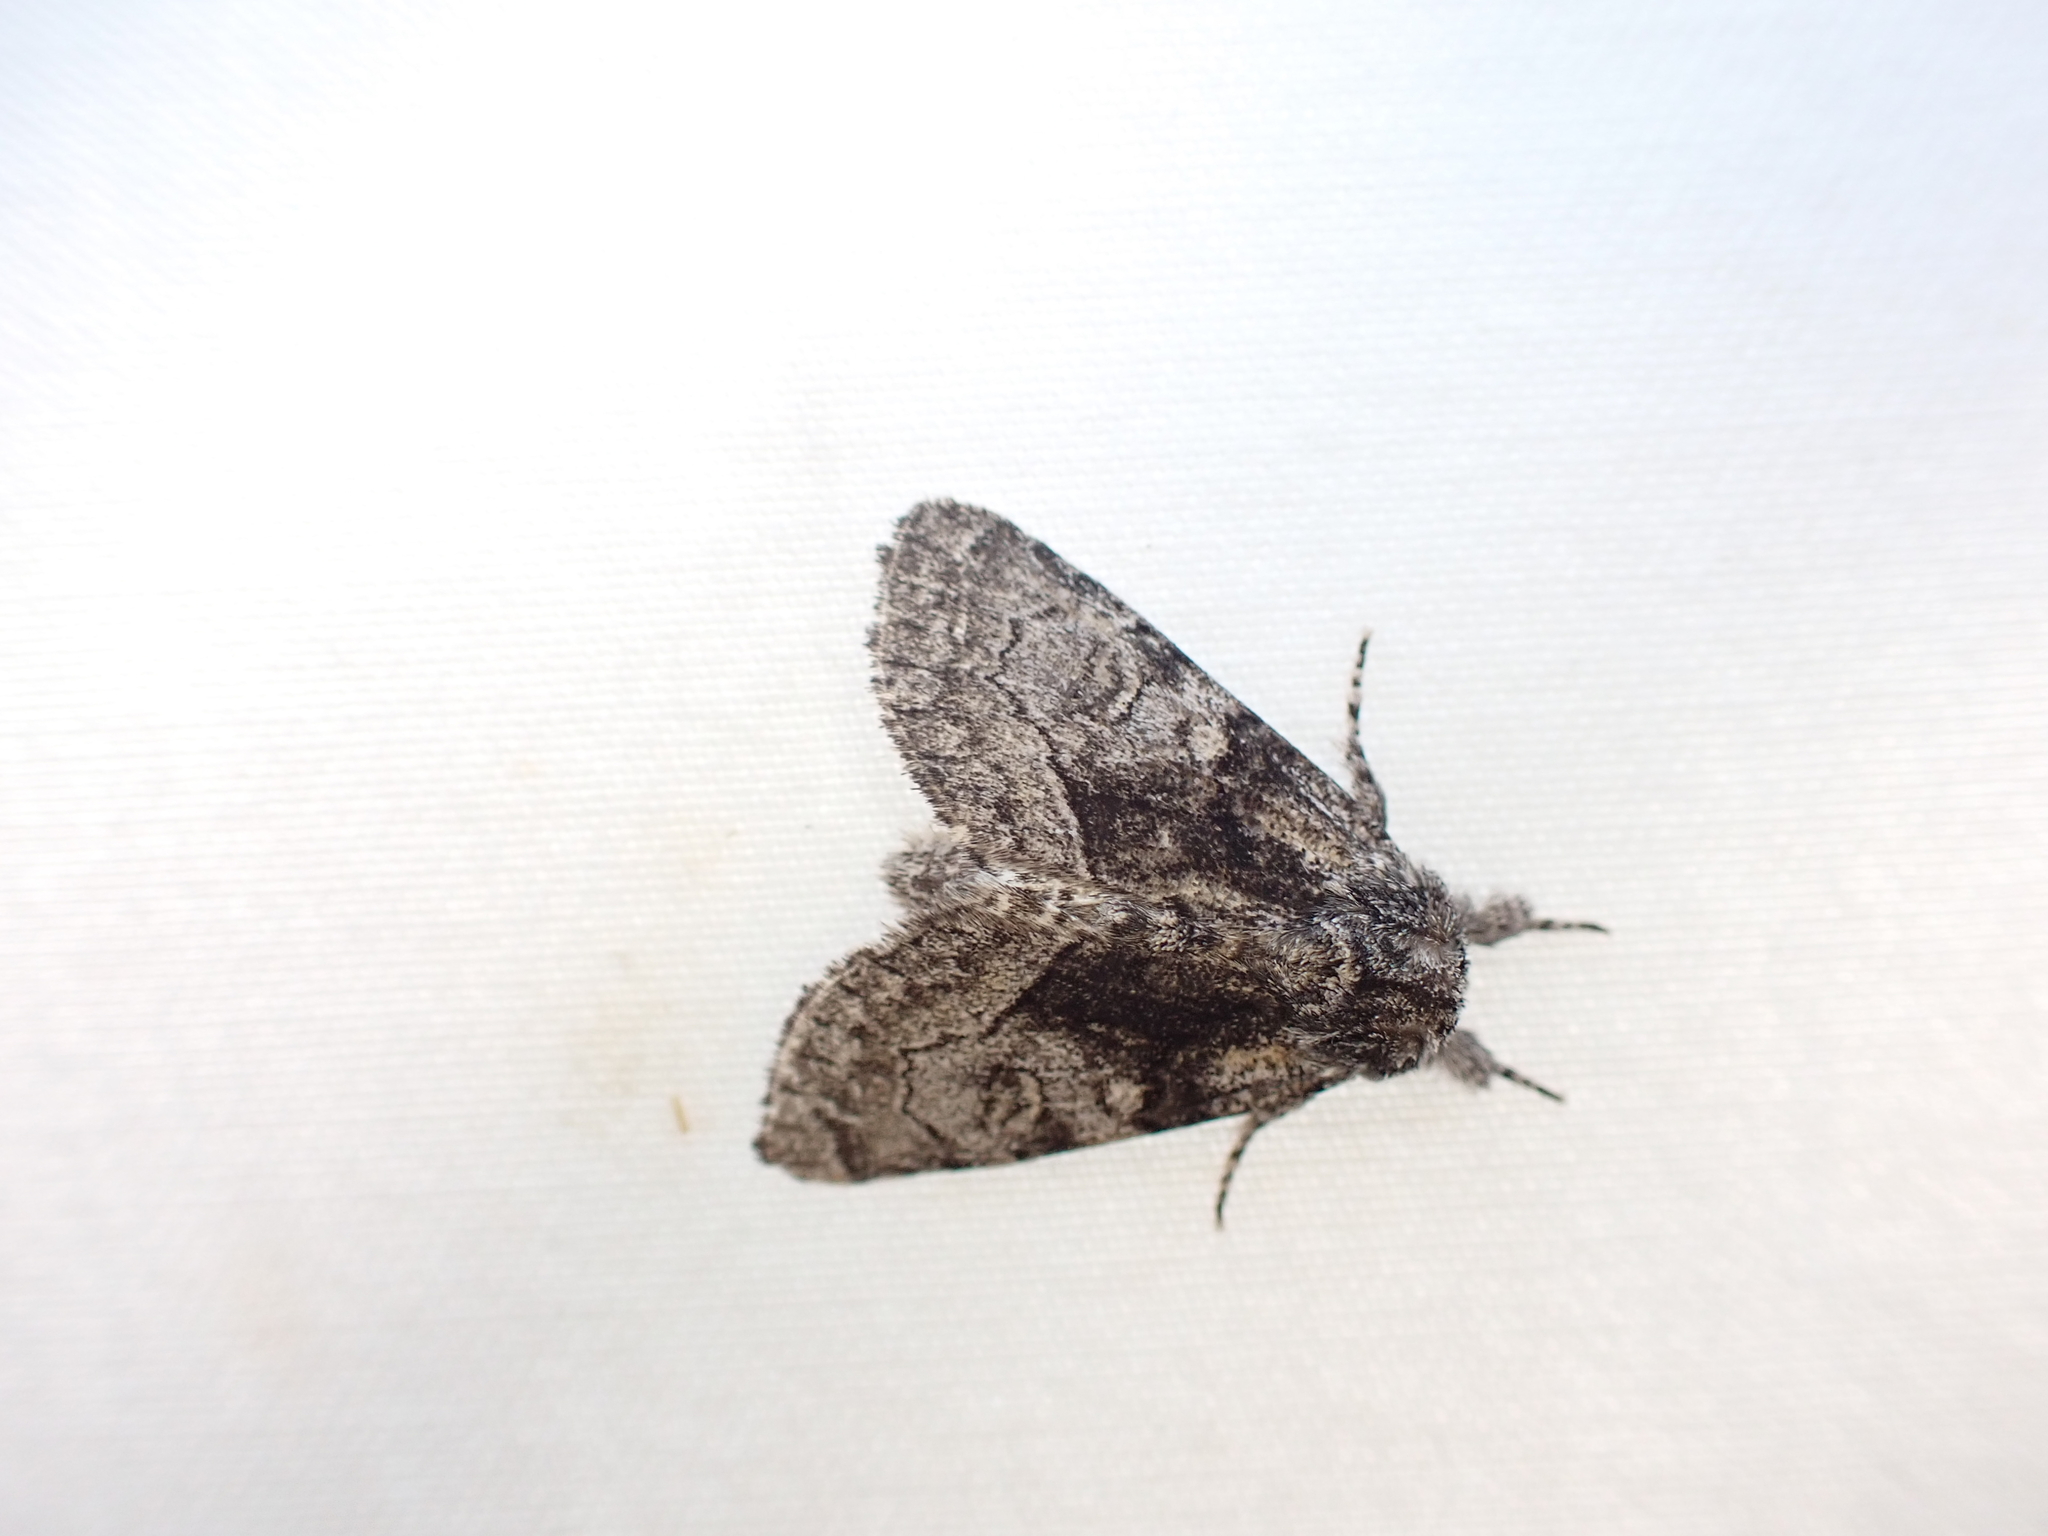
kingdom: Animalia
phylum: Arthropoda
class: Insecta
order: Lepidoptera
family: Noctuidae
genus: Raphia
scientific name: Raphia frater
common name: Brother
